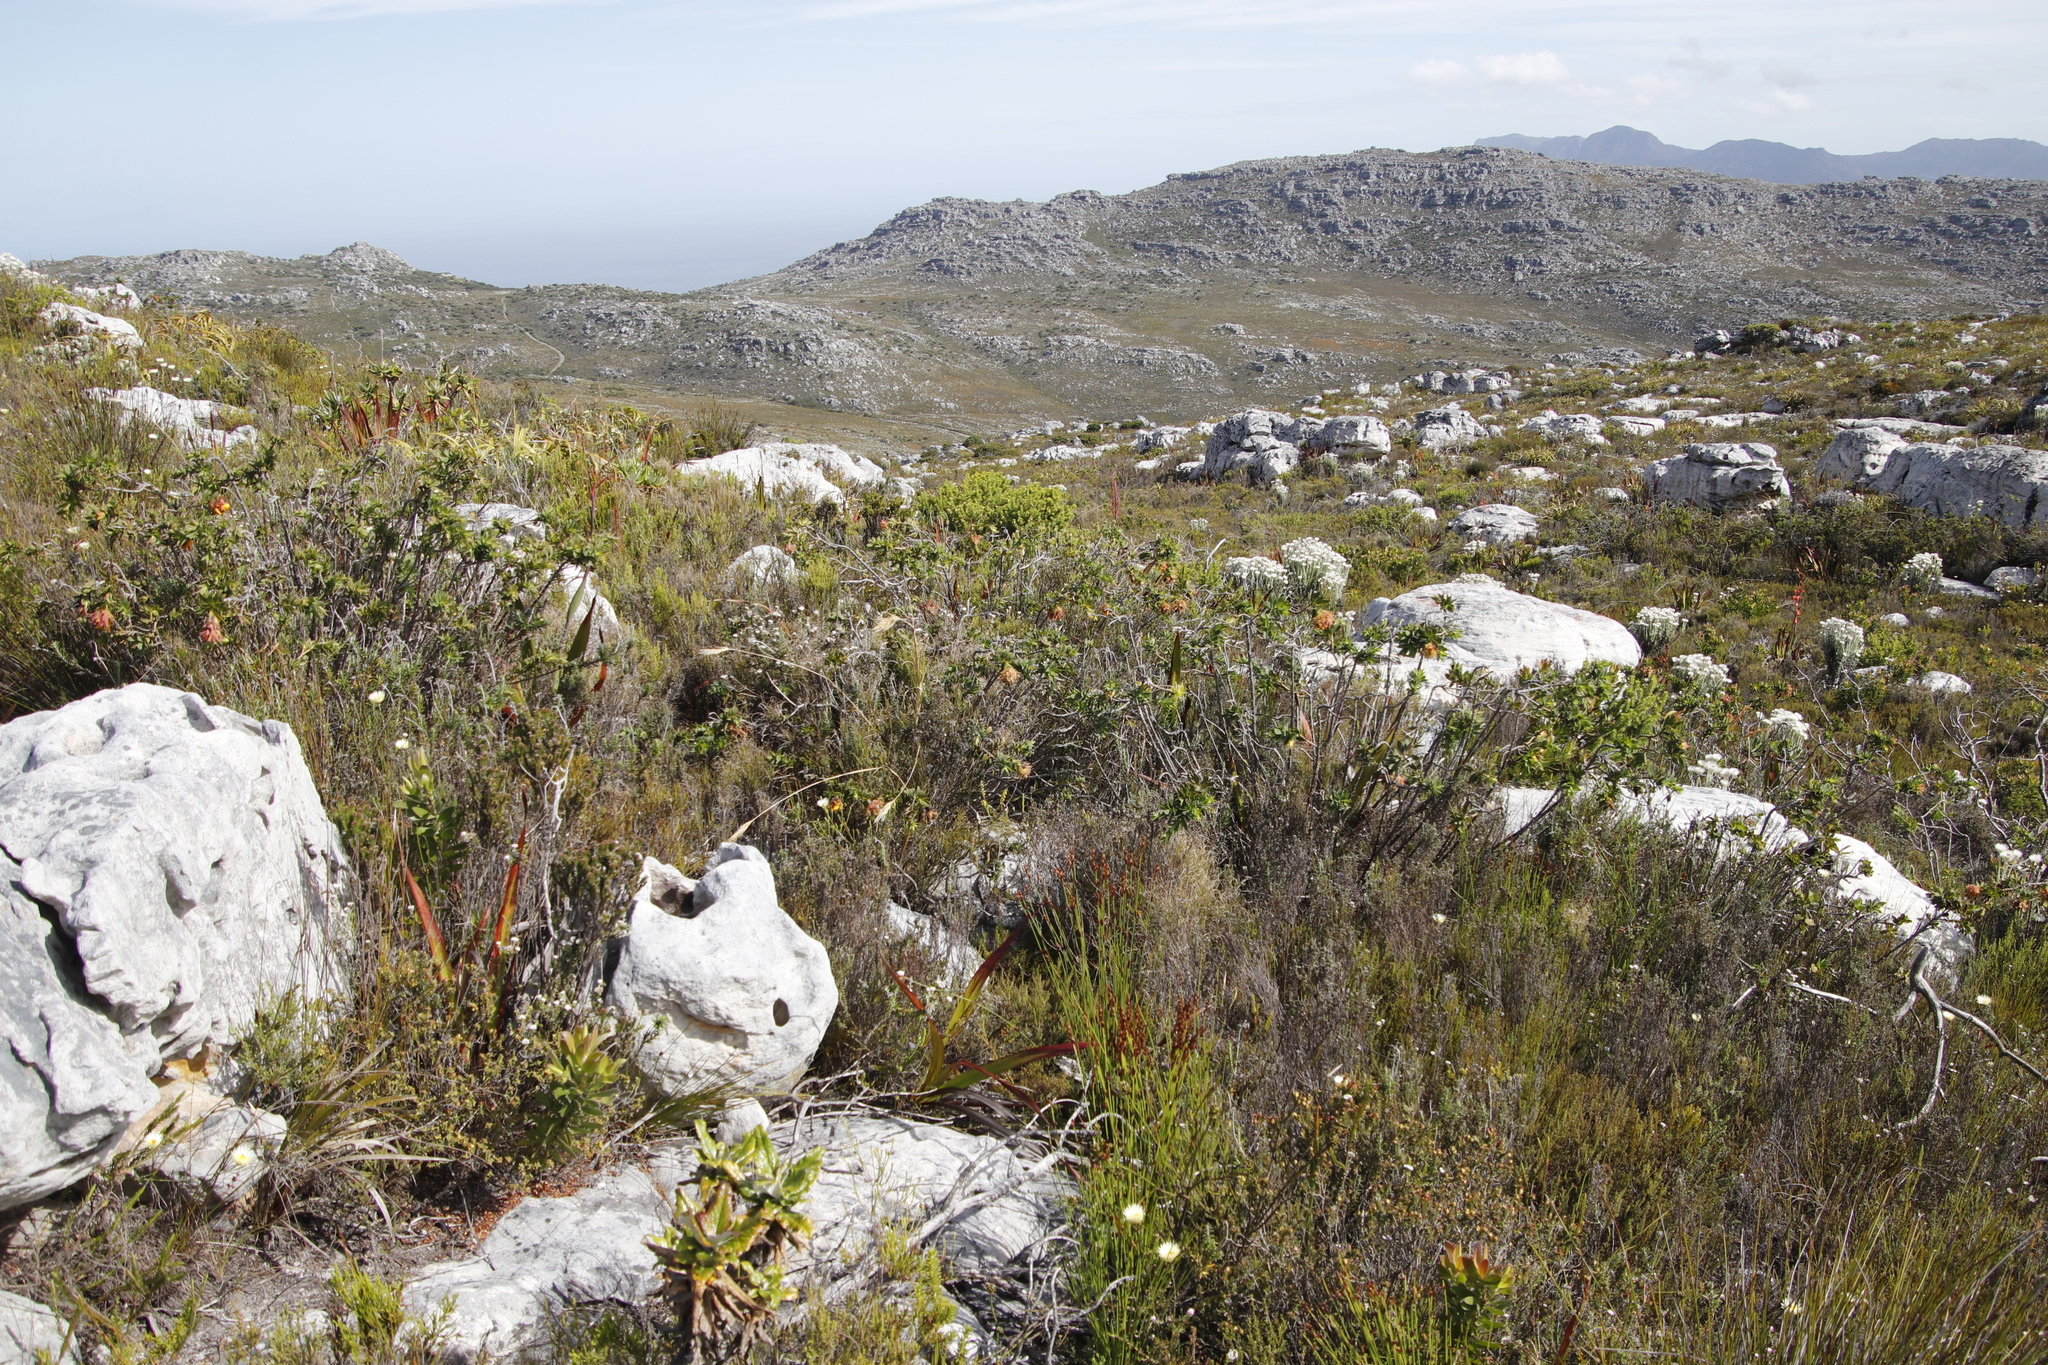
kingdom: Plantae
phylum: Tracheophyta
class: Magnoliopsida
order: Fabales
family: Fabaceae
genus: Liparia
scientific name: Liparia splendens
